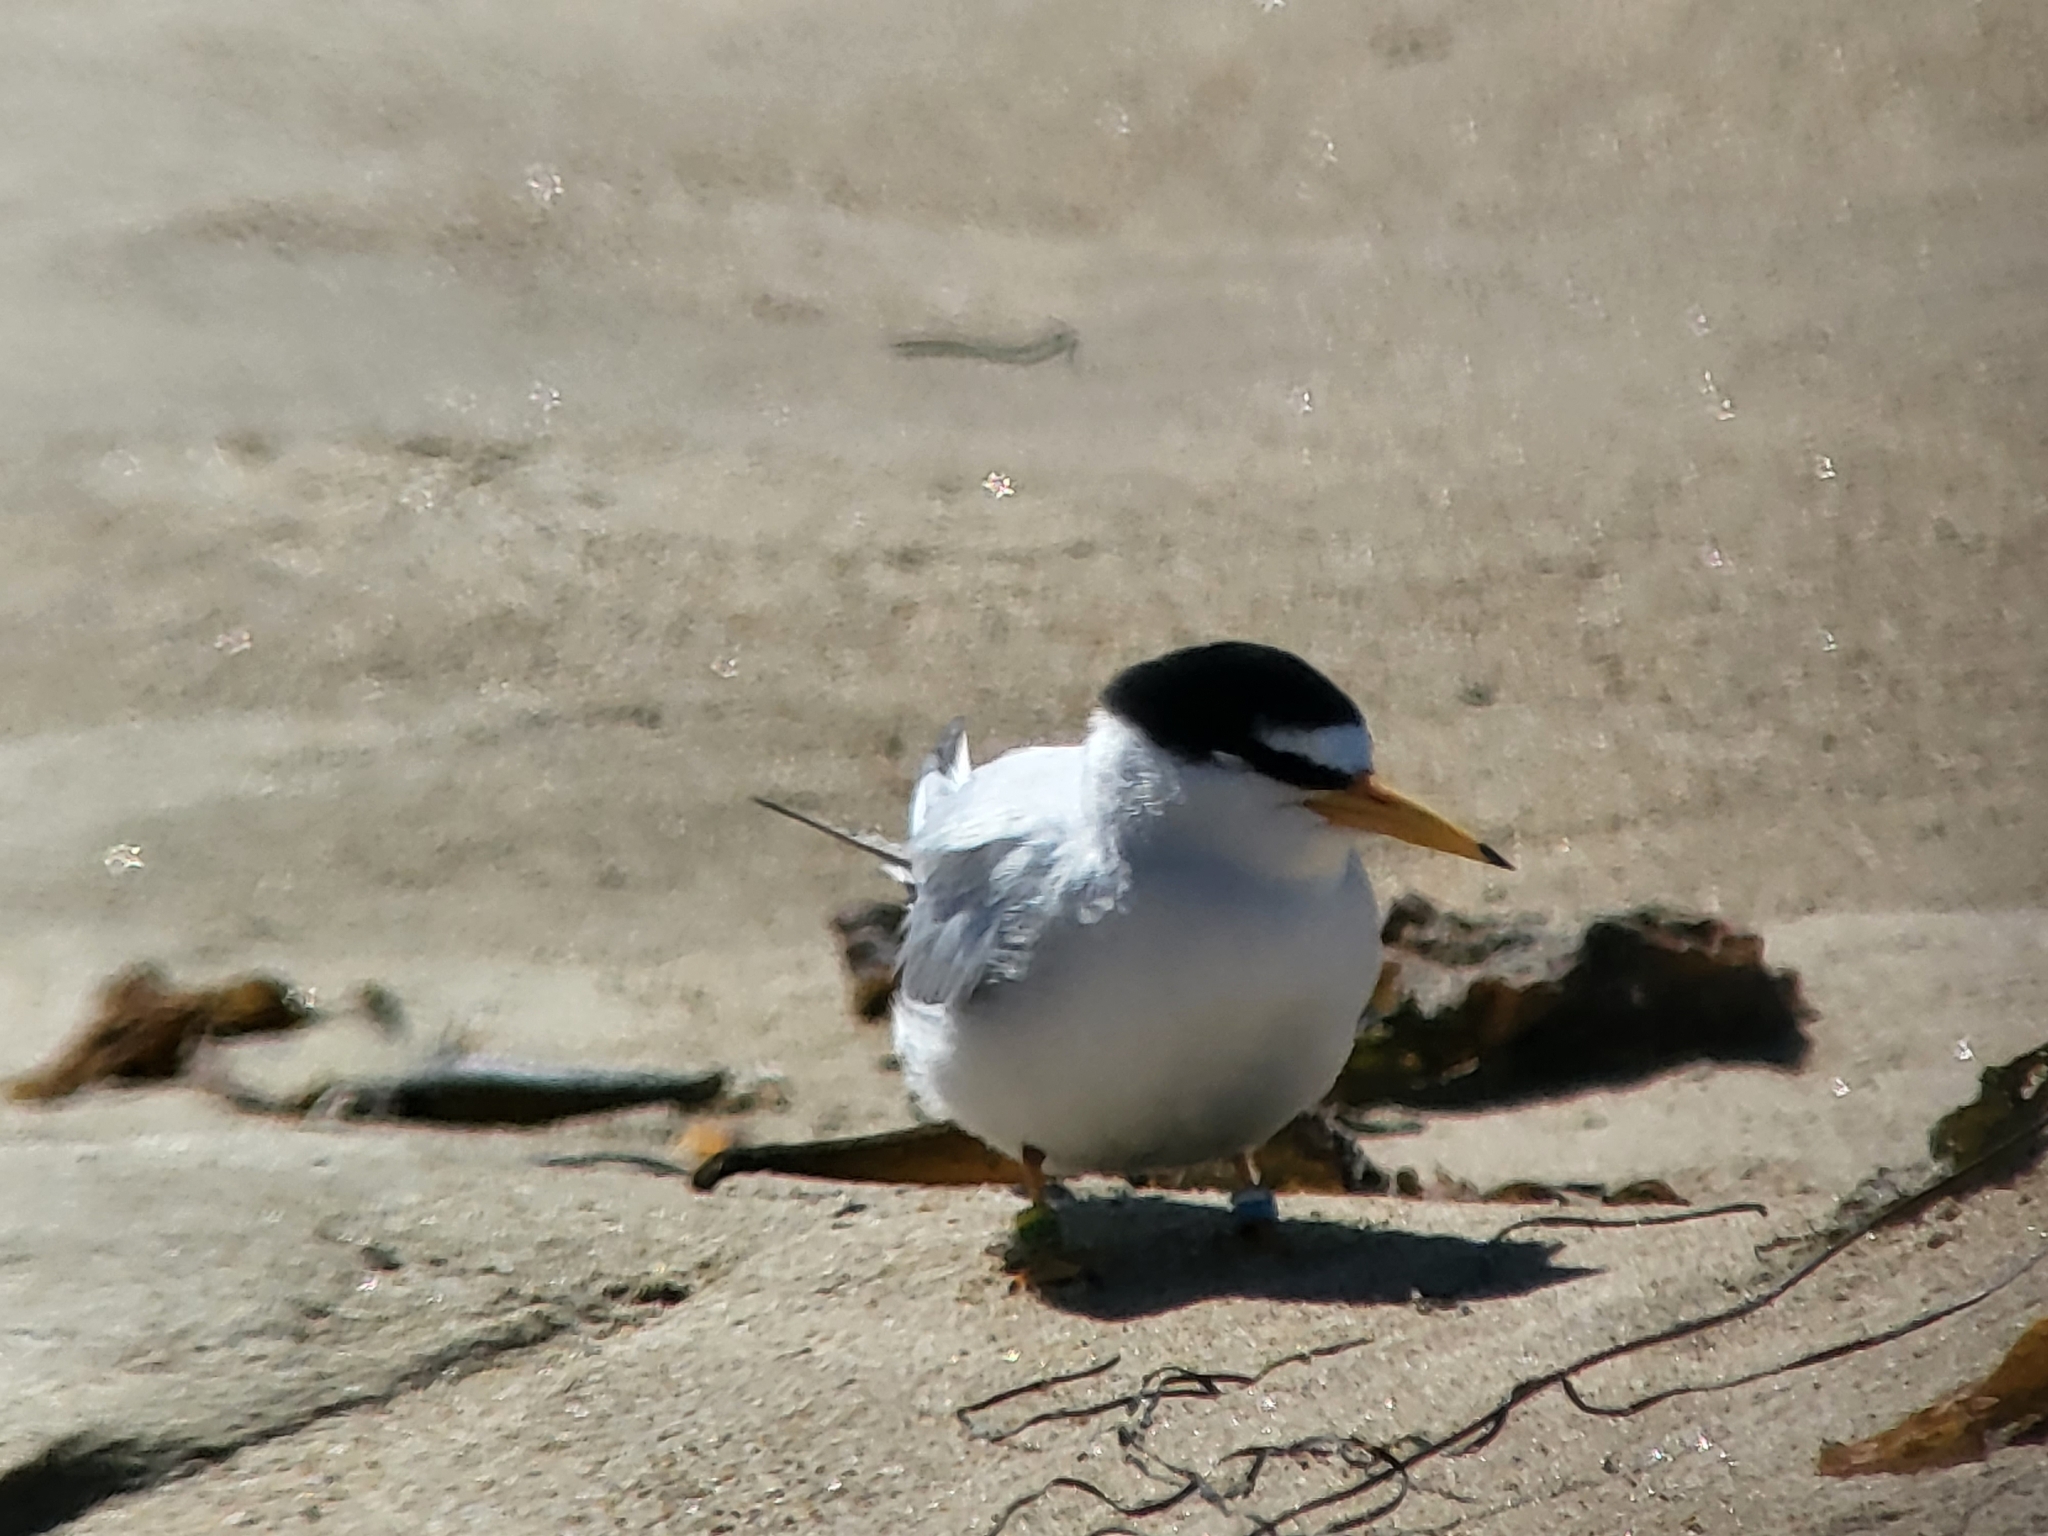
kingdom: Animalia
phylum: Chordata
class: Aves
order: Charadriiformes
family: Laridae
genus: Sternula
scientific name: Sternula antillarum
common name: Least tern
